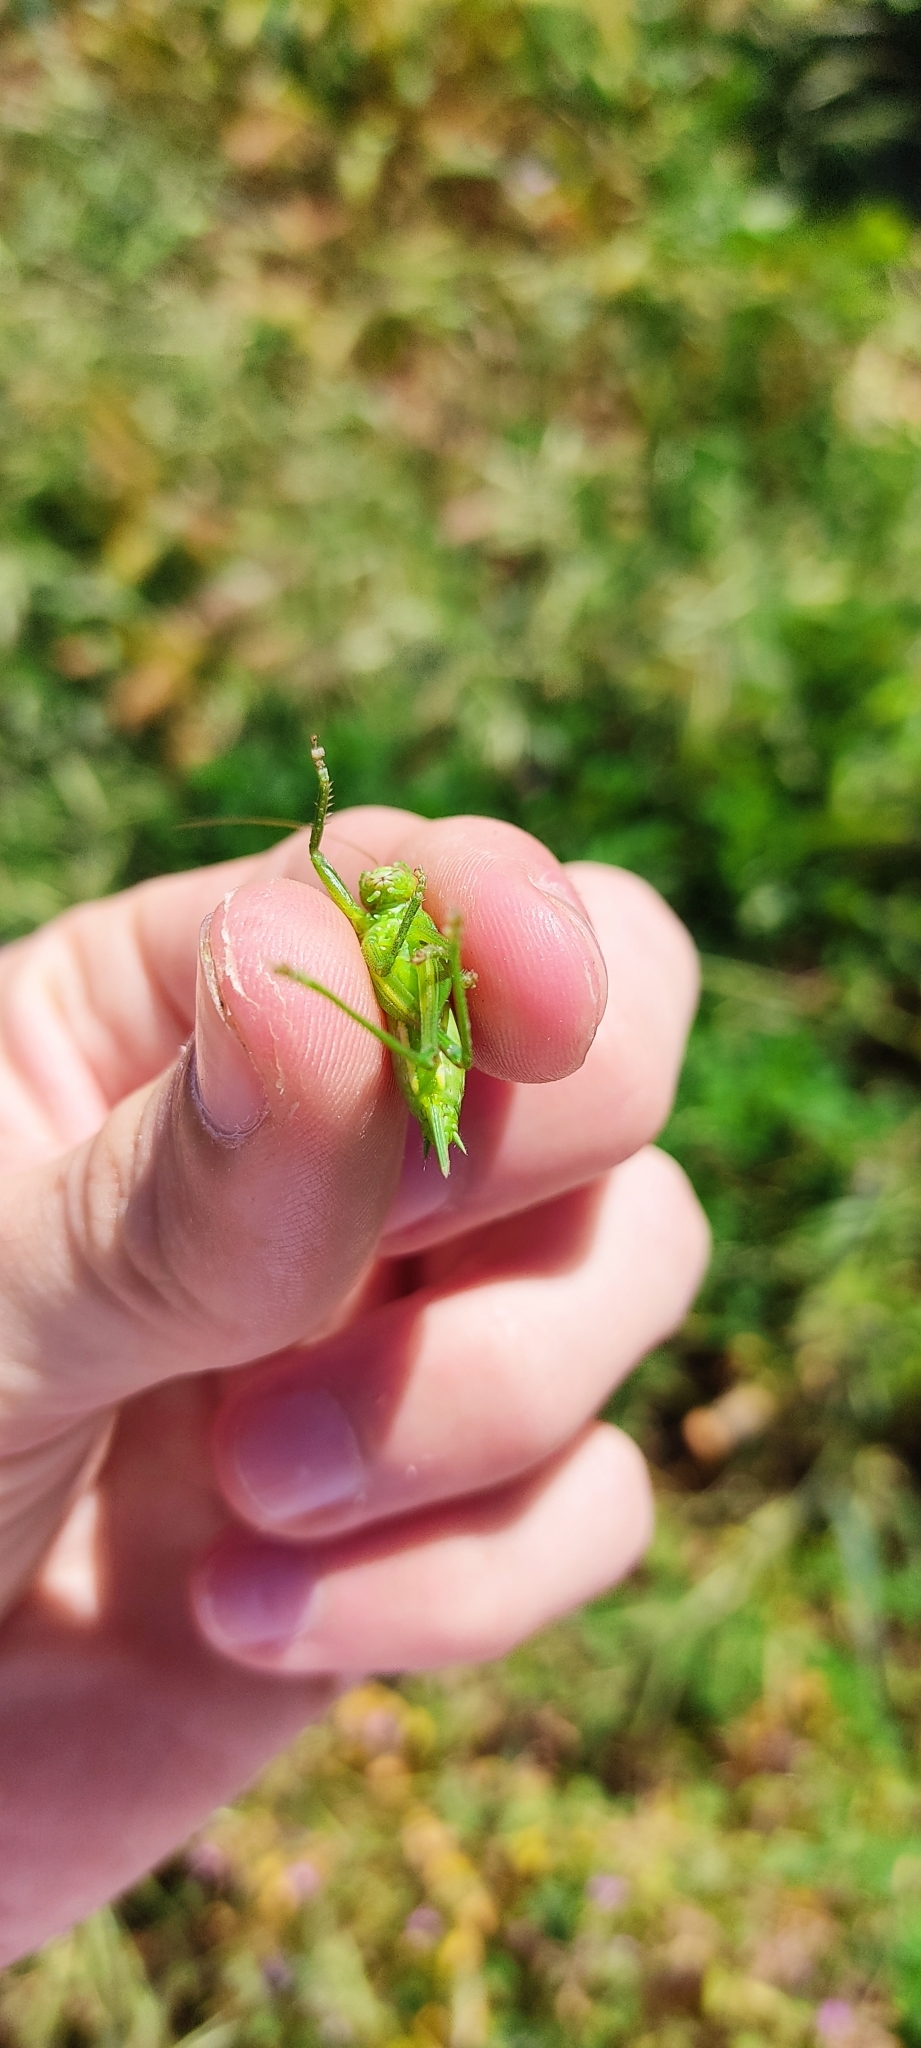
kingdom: Animalia
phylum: Arthropoda
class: Insecta
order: Orthoptera
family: Tettigoniidae
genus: Tettigonia
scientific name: Tettigonia viridissima
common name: Great green bush-cricket
